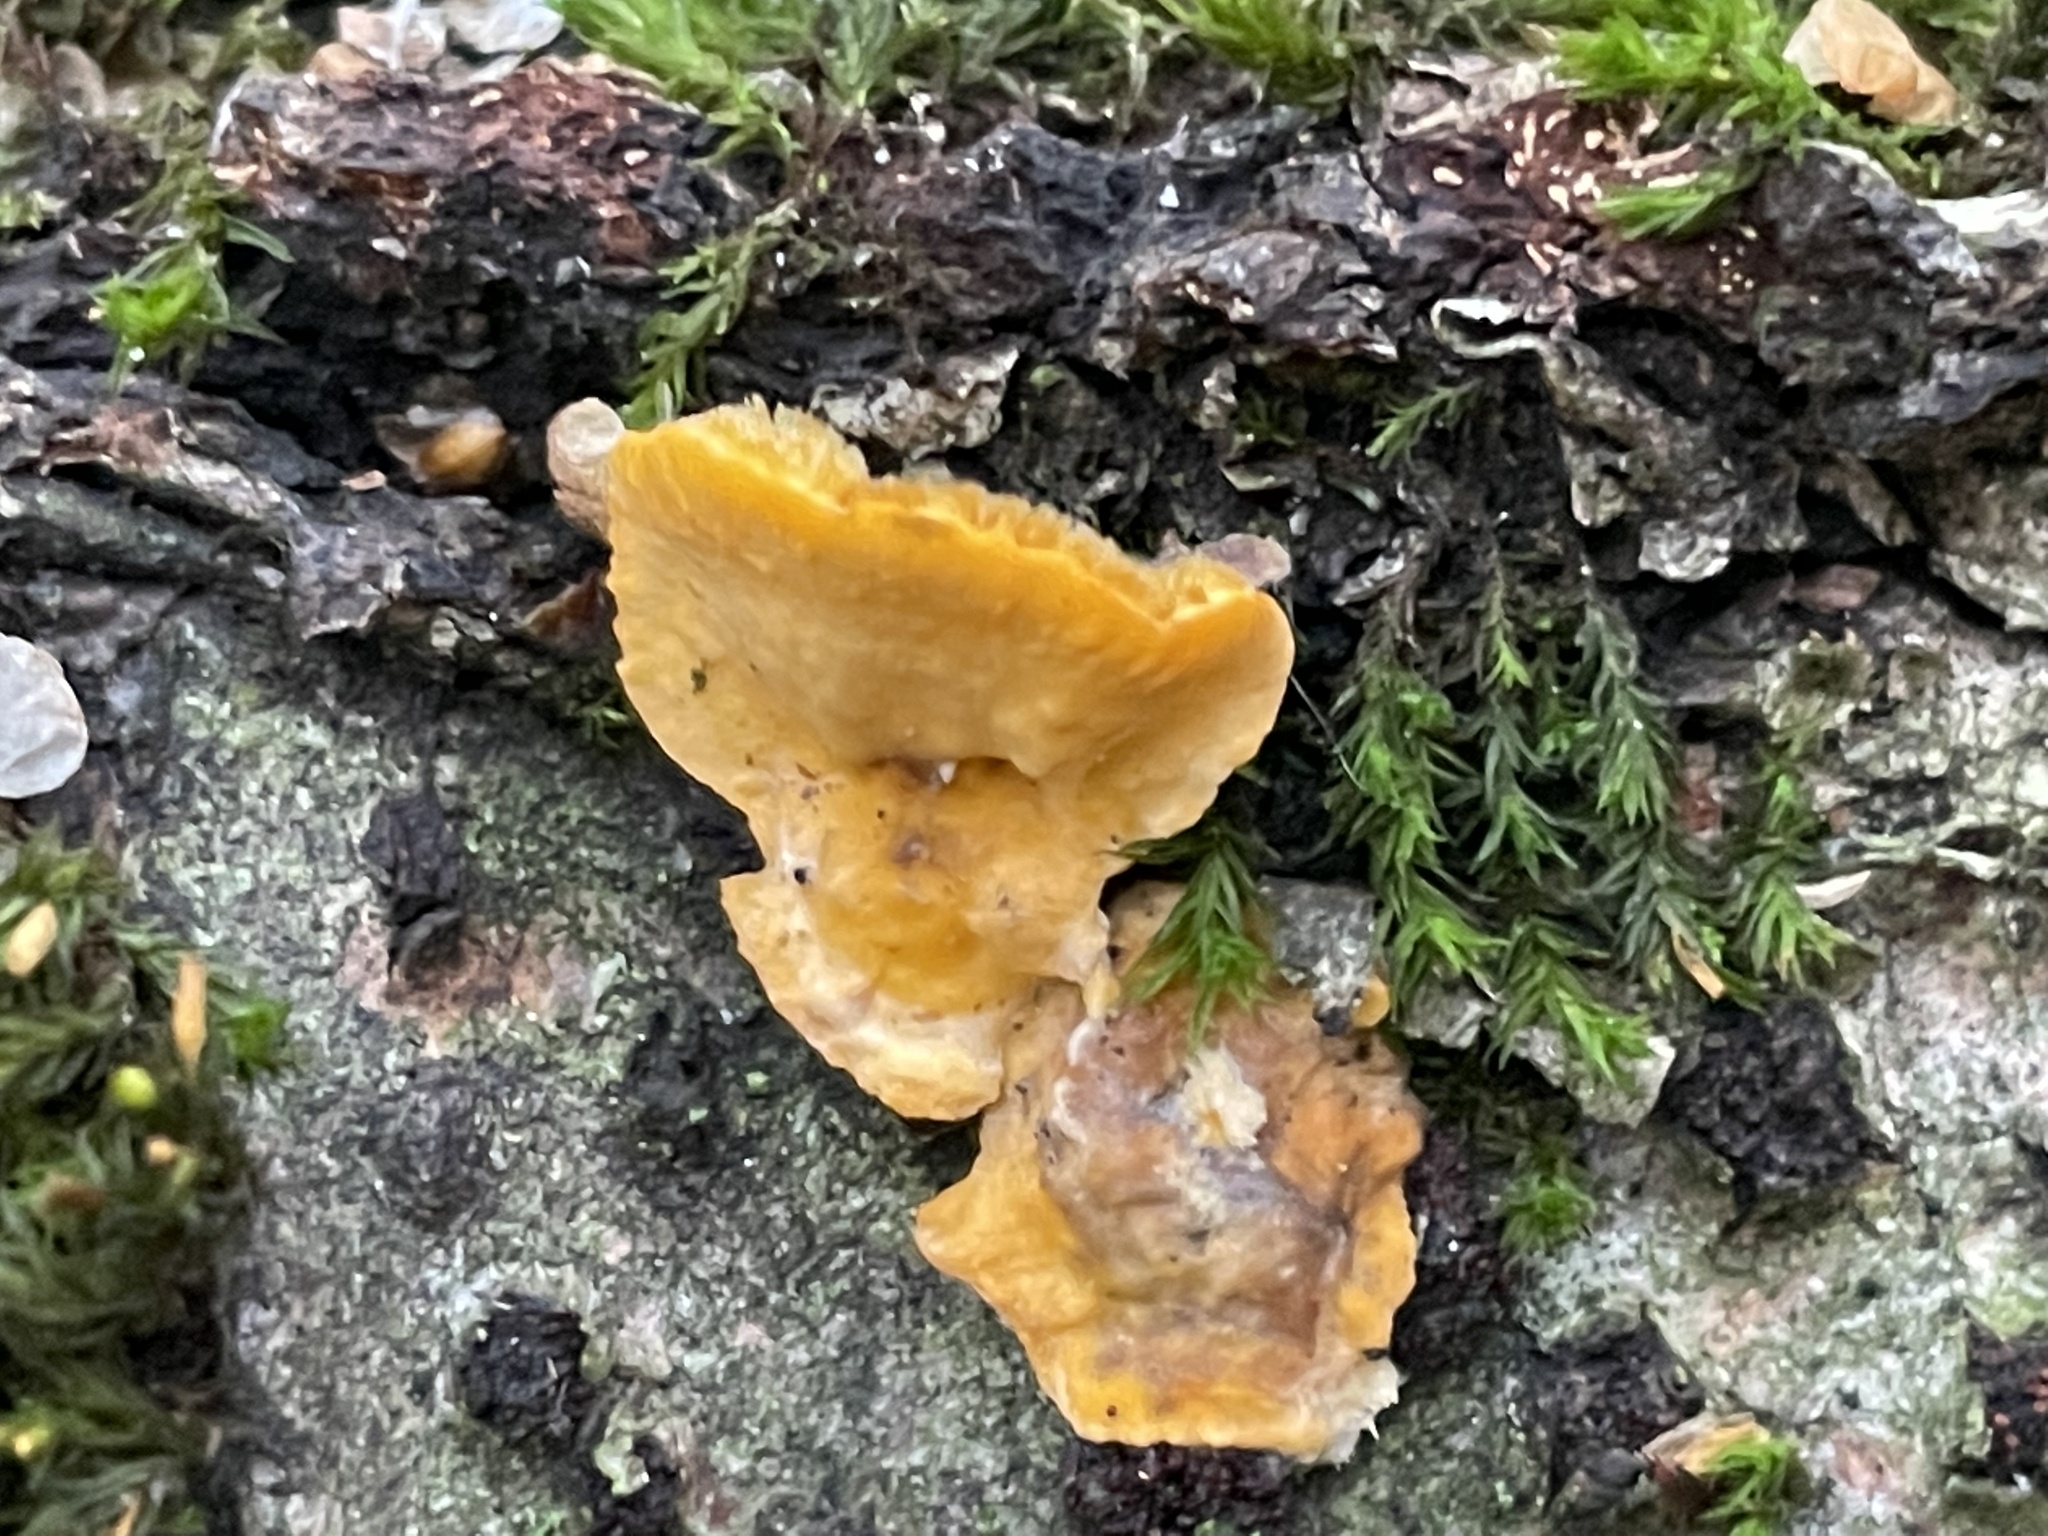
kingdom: Fungi
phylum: Basidiomycota
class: Agaricomycetes
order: Russulales
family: Stereaceae
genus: Stereum
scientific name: Stereum hirsutum
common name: Hairy curtain crust
